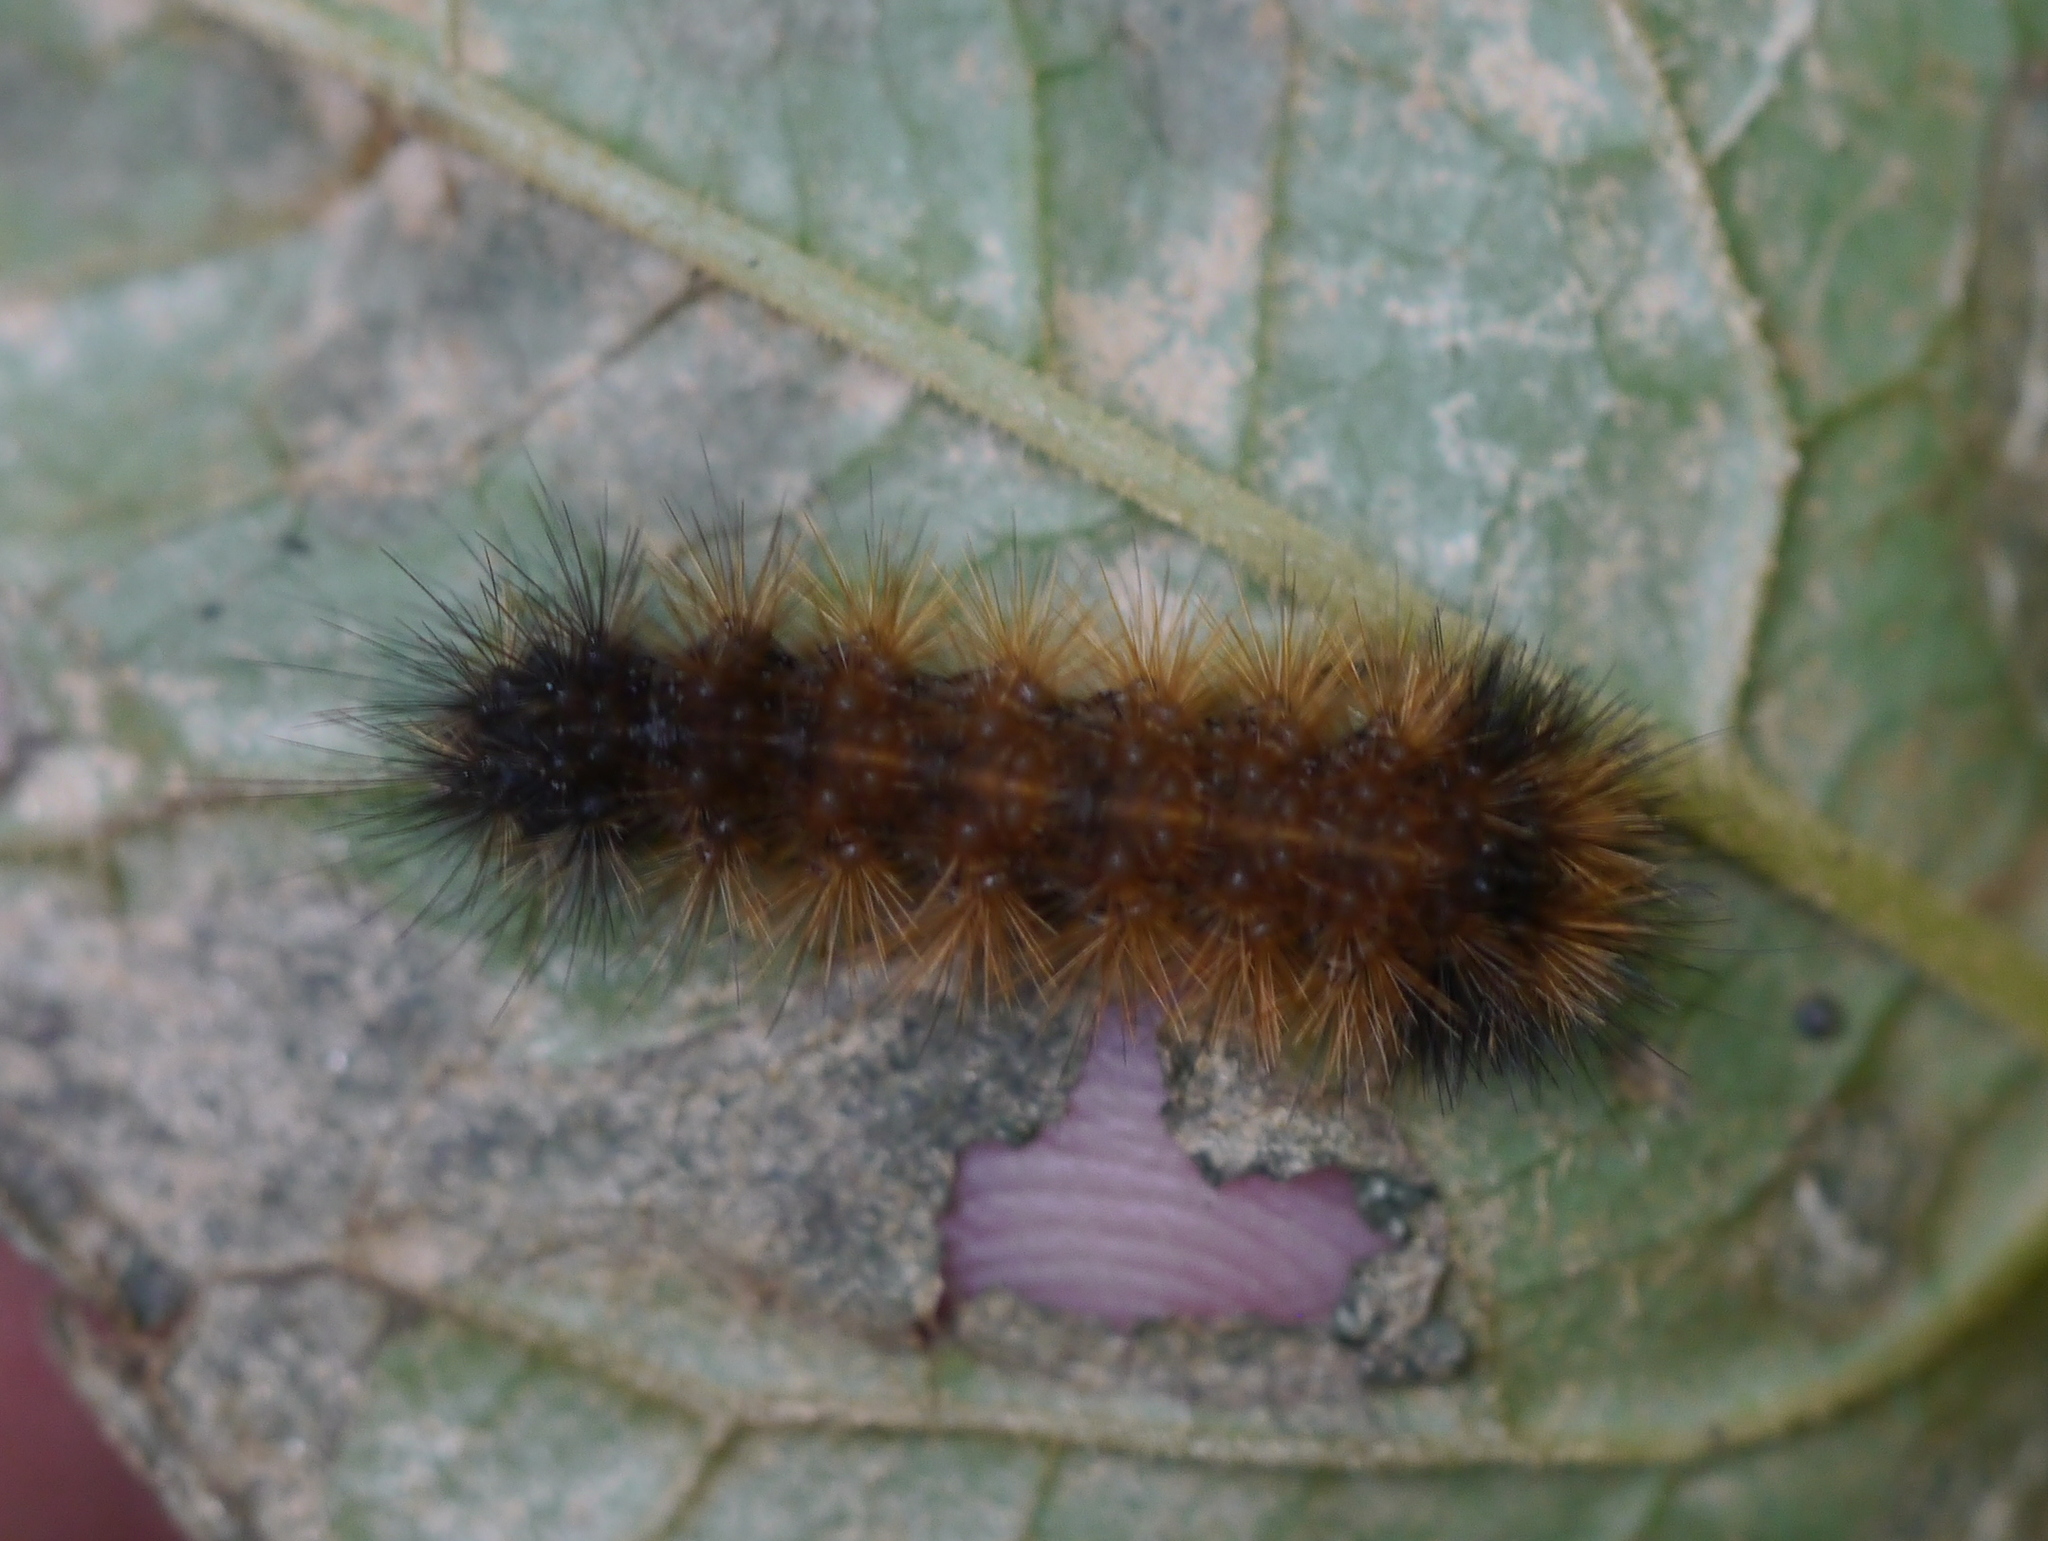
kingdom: Animalia
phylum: Arthropoda
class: Insecta
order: Lepidoptera
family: Erebidae
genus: Pyrrharctia
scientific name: Pyrrharctia isabella
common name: Isabella tiger moth
